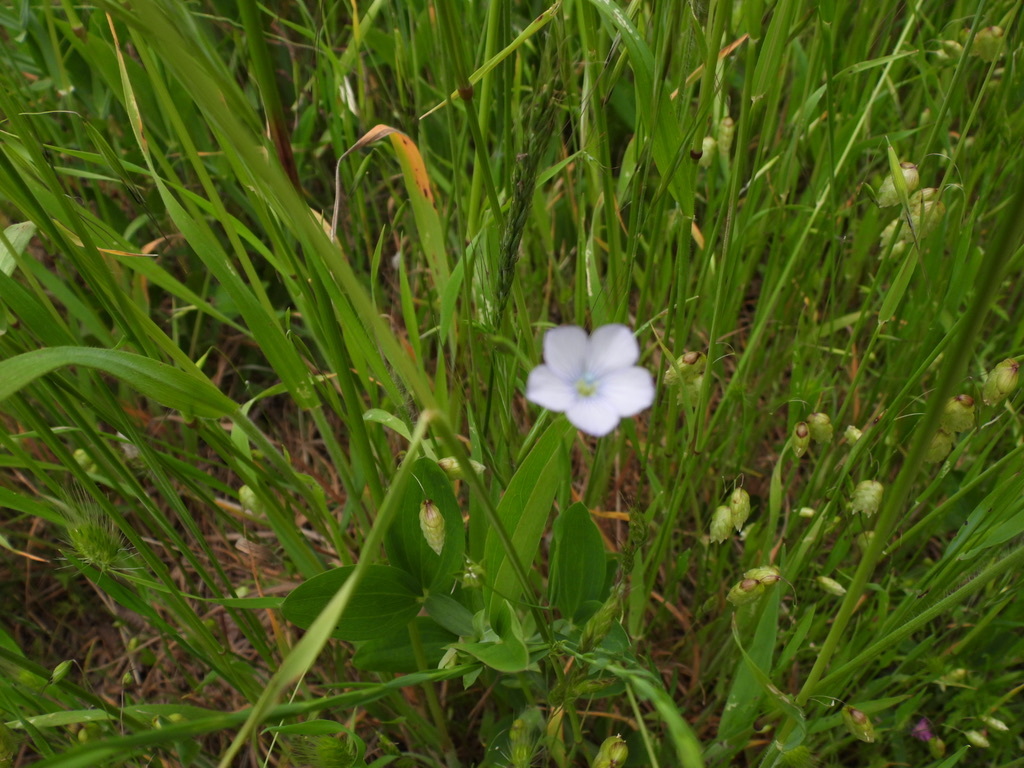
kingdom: Plantae
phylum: Tracheophyta
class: Magnoliopsida
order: Malpighiales
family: Linaceae
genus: Linum
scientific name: Linum bienne
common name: Pale flax
